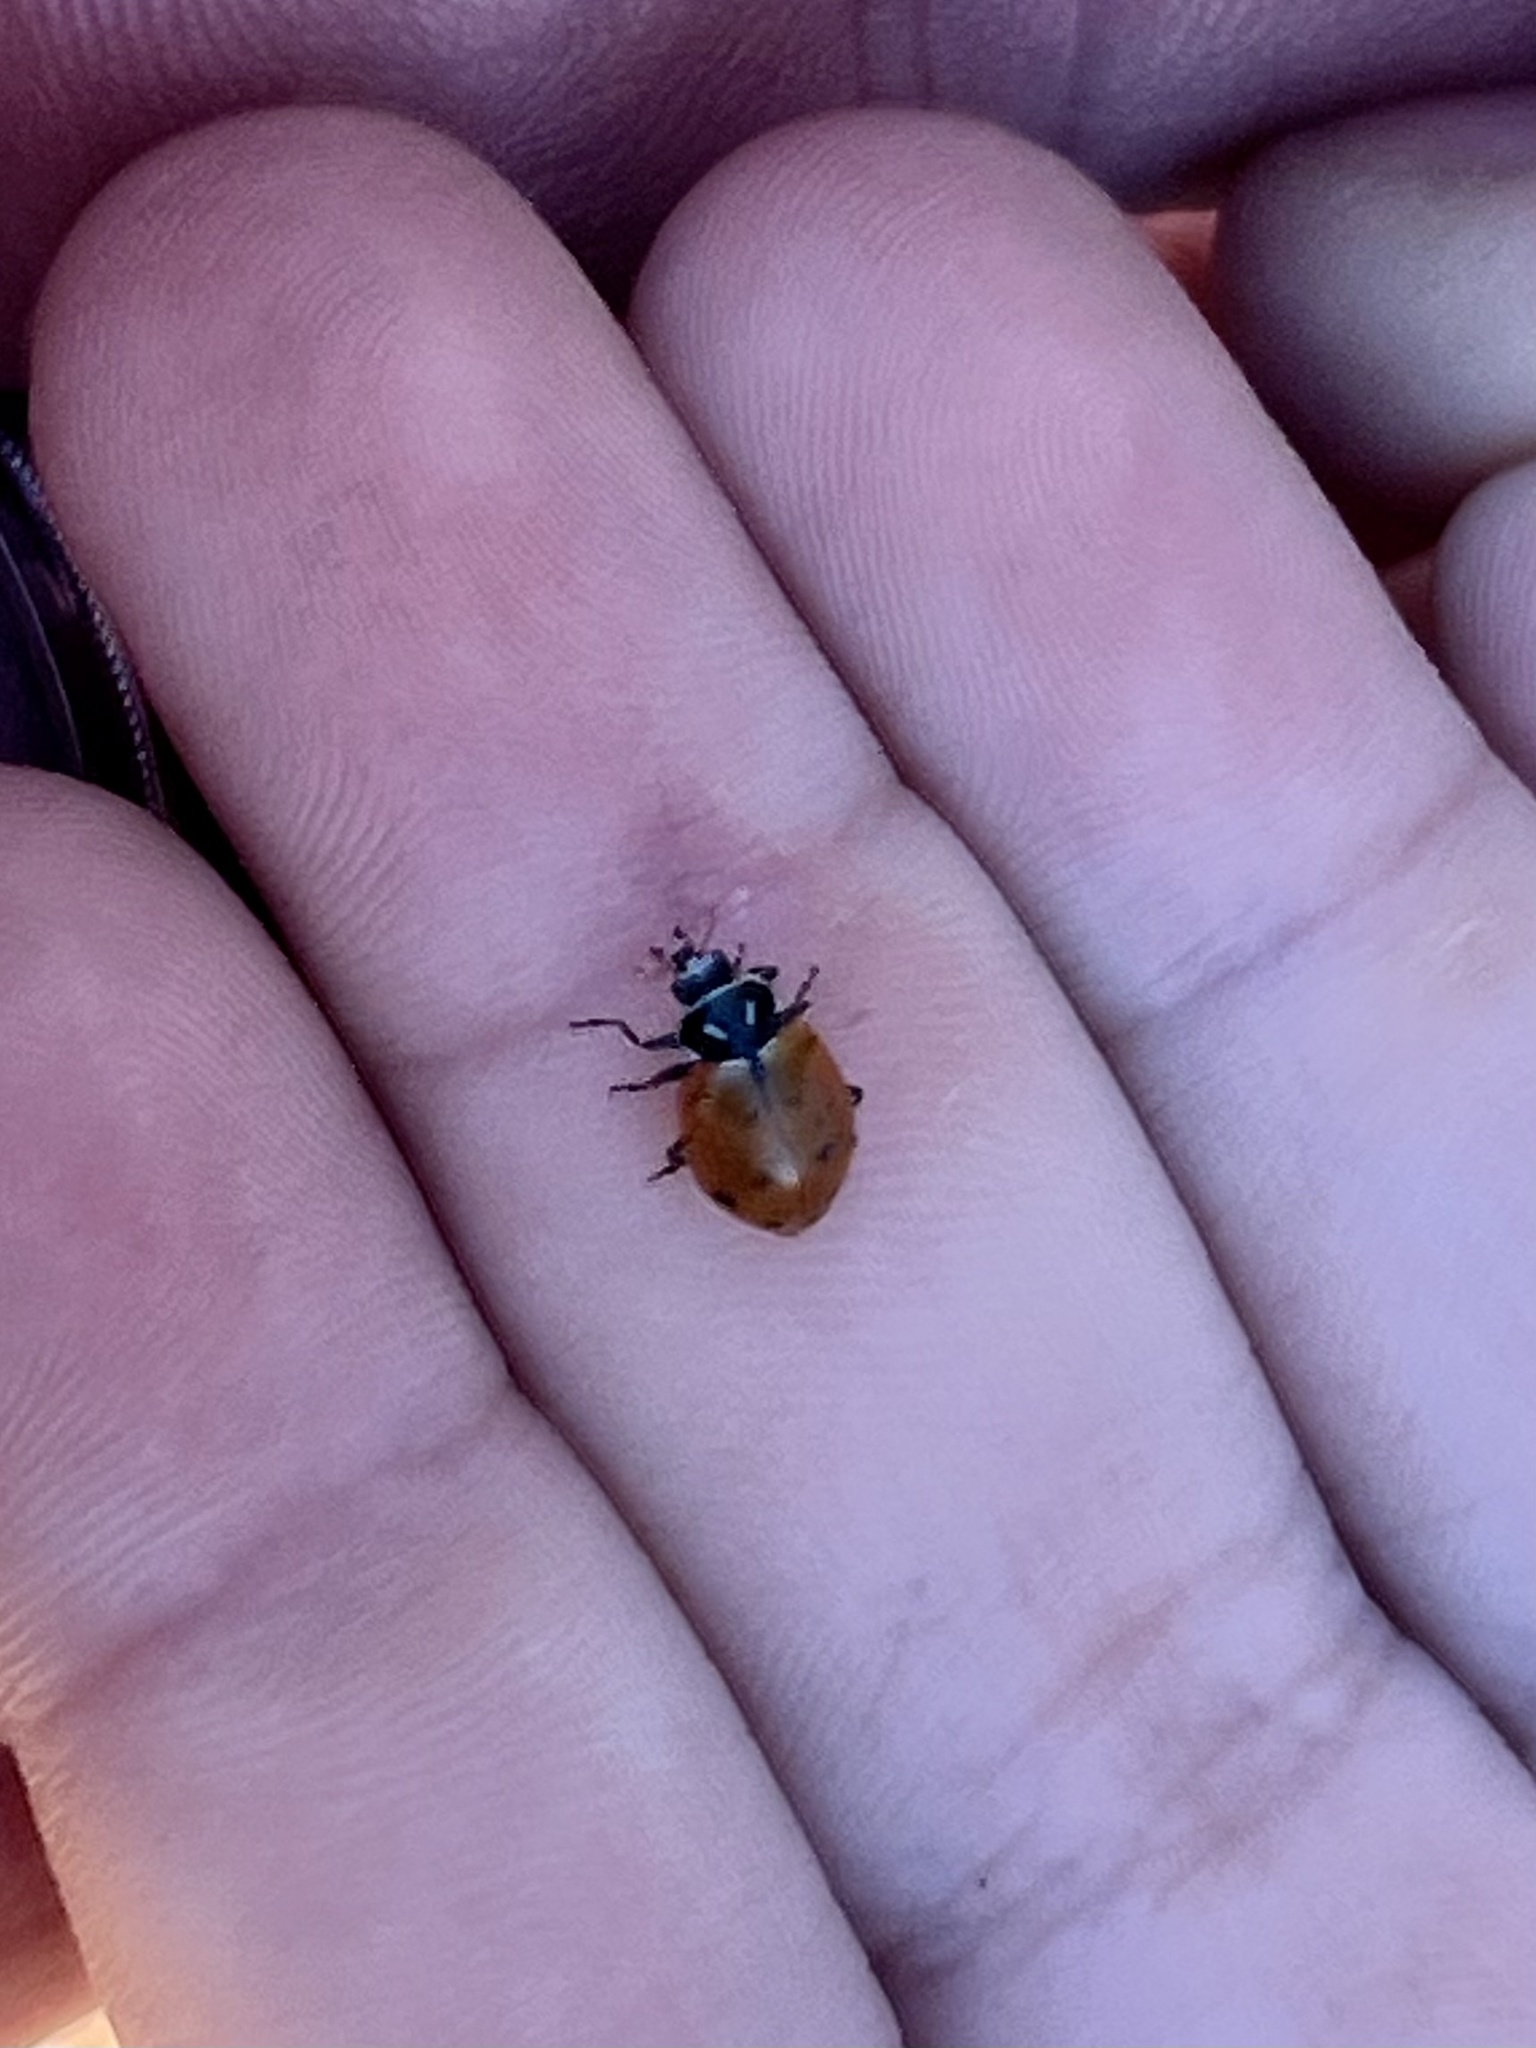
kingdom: Animalia
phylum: Arthropoda
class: Insecta
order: Coleoptera
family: Coccinellidae
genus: Hippodamia
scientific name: Hippodamia convergens
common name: Convergent lady beetle
